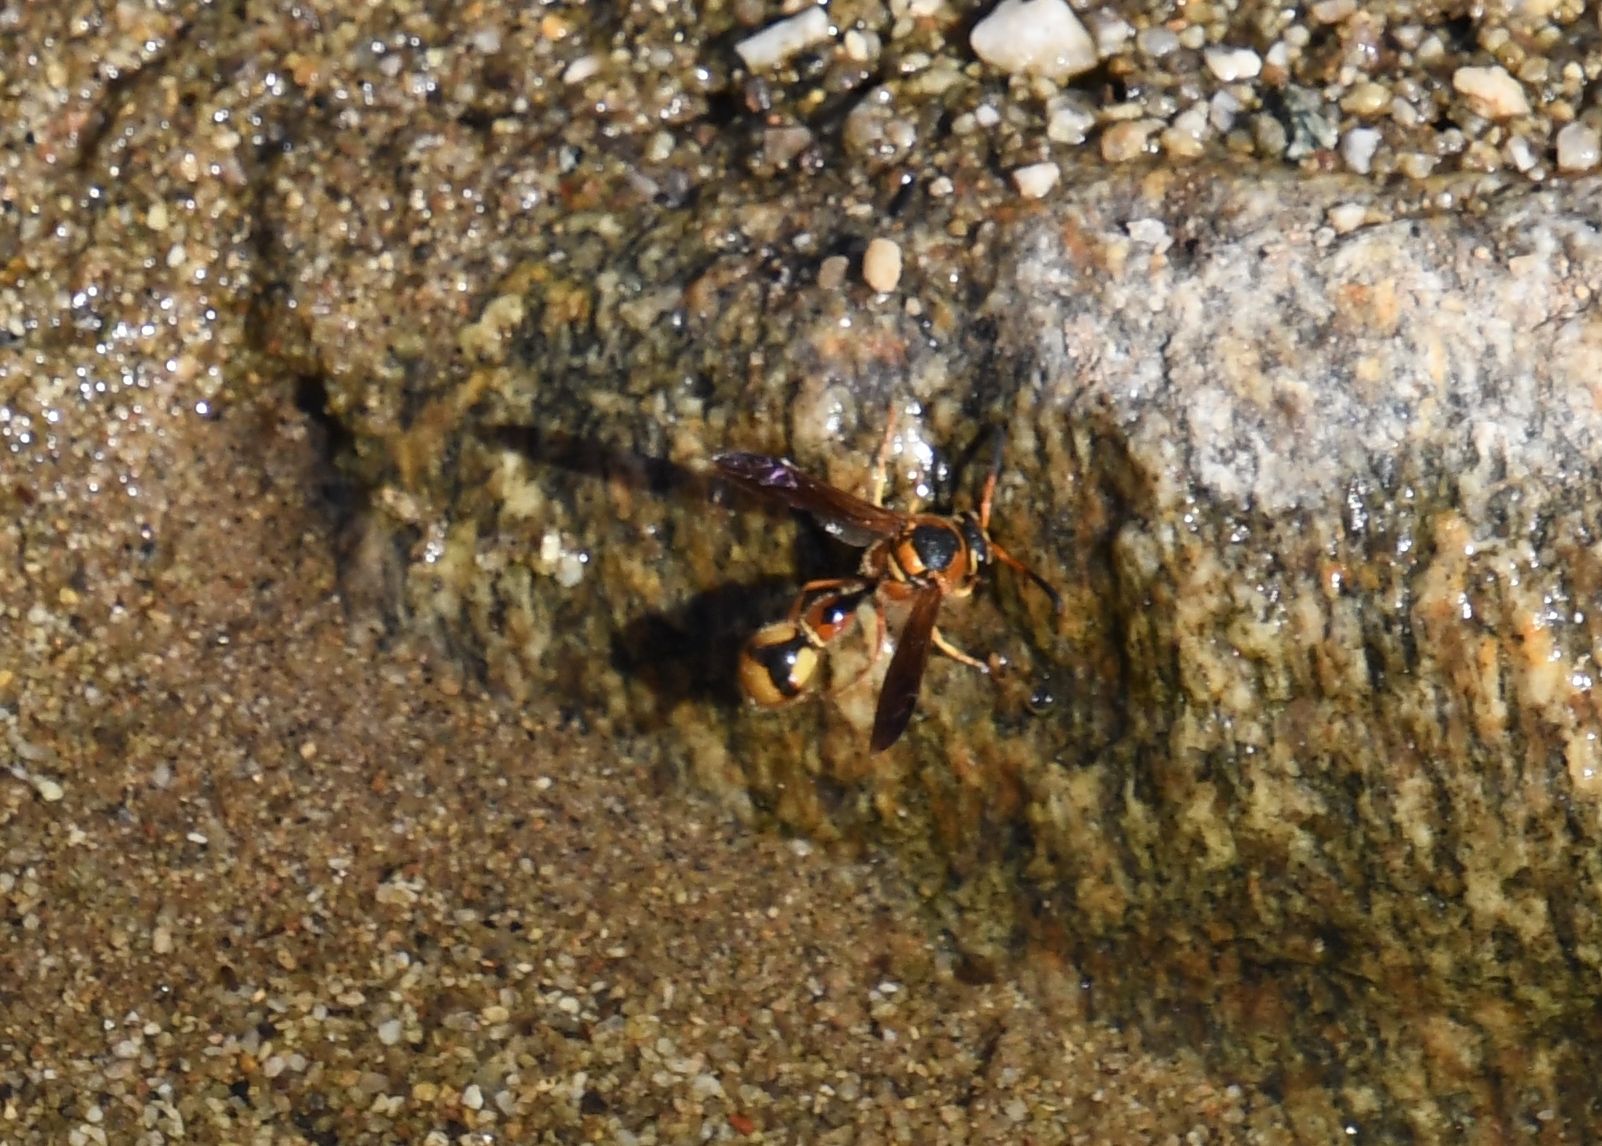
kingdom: Animalia
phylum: Arthropoda
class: Insecta
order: Hymenoptera
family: Vespidae
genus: Eumenes
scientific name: Eumenes bollii
